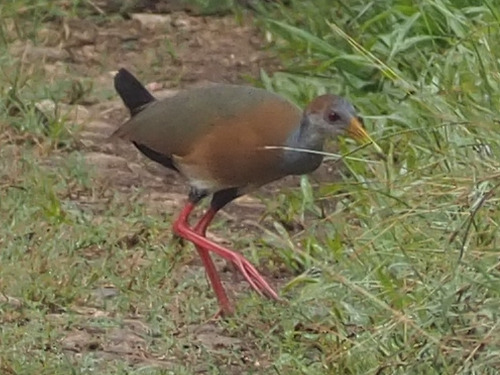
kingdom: Animalia
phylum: Chordata
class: Aves
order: Gruiformes
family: Rallidae
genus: Aramides
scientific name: Aramides albiventris
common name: Russet-naped wood-rail
